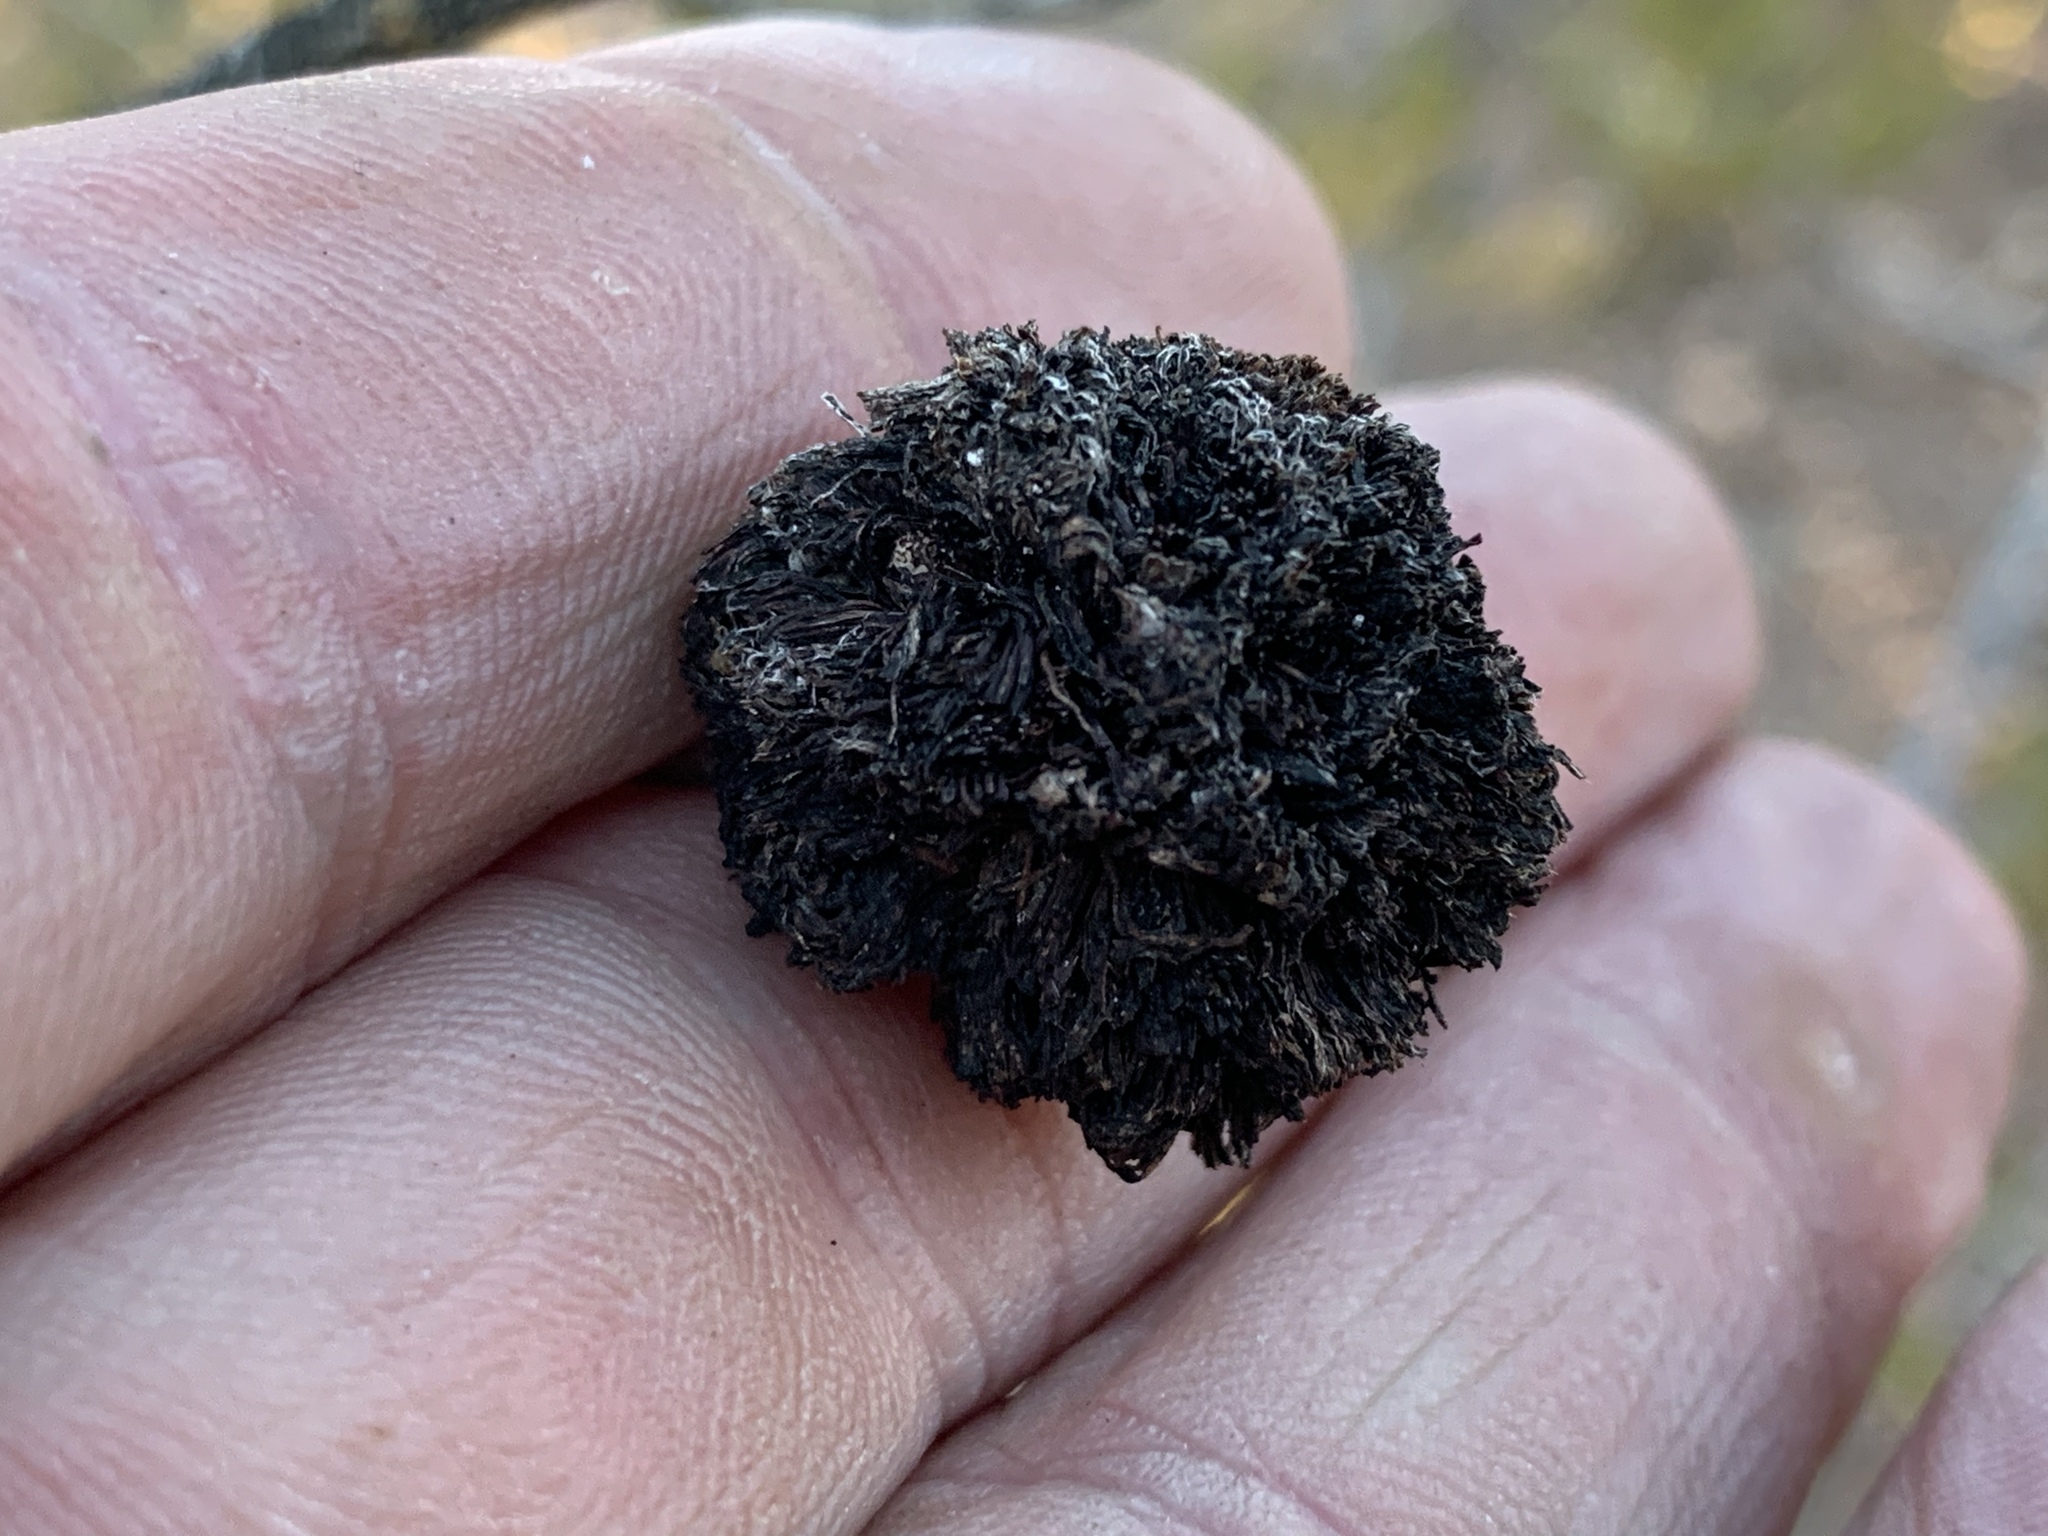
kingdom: Animalia
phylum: Arthropoda
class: Insecta
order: Diptera
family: Cecidomyiidae
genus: Asphondylia
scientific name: Asphondylia auripila
